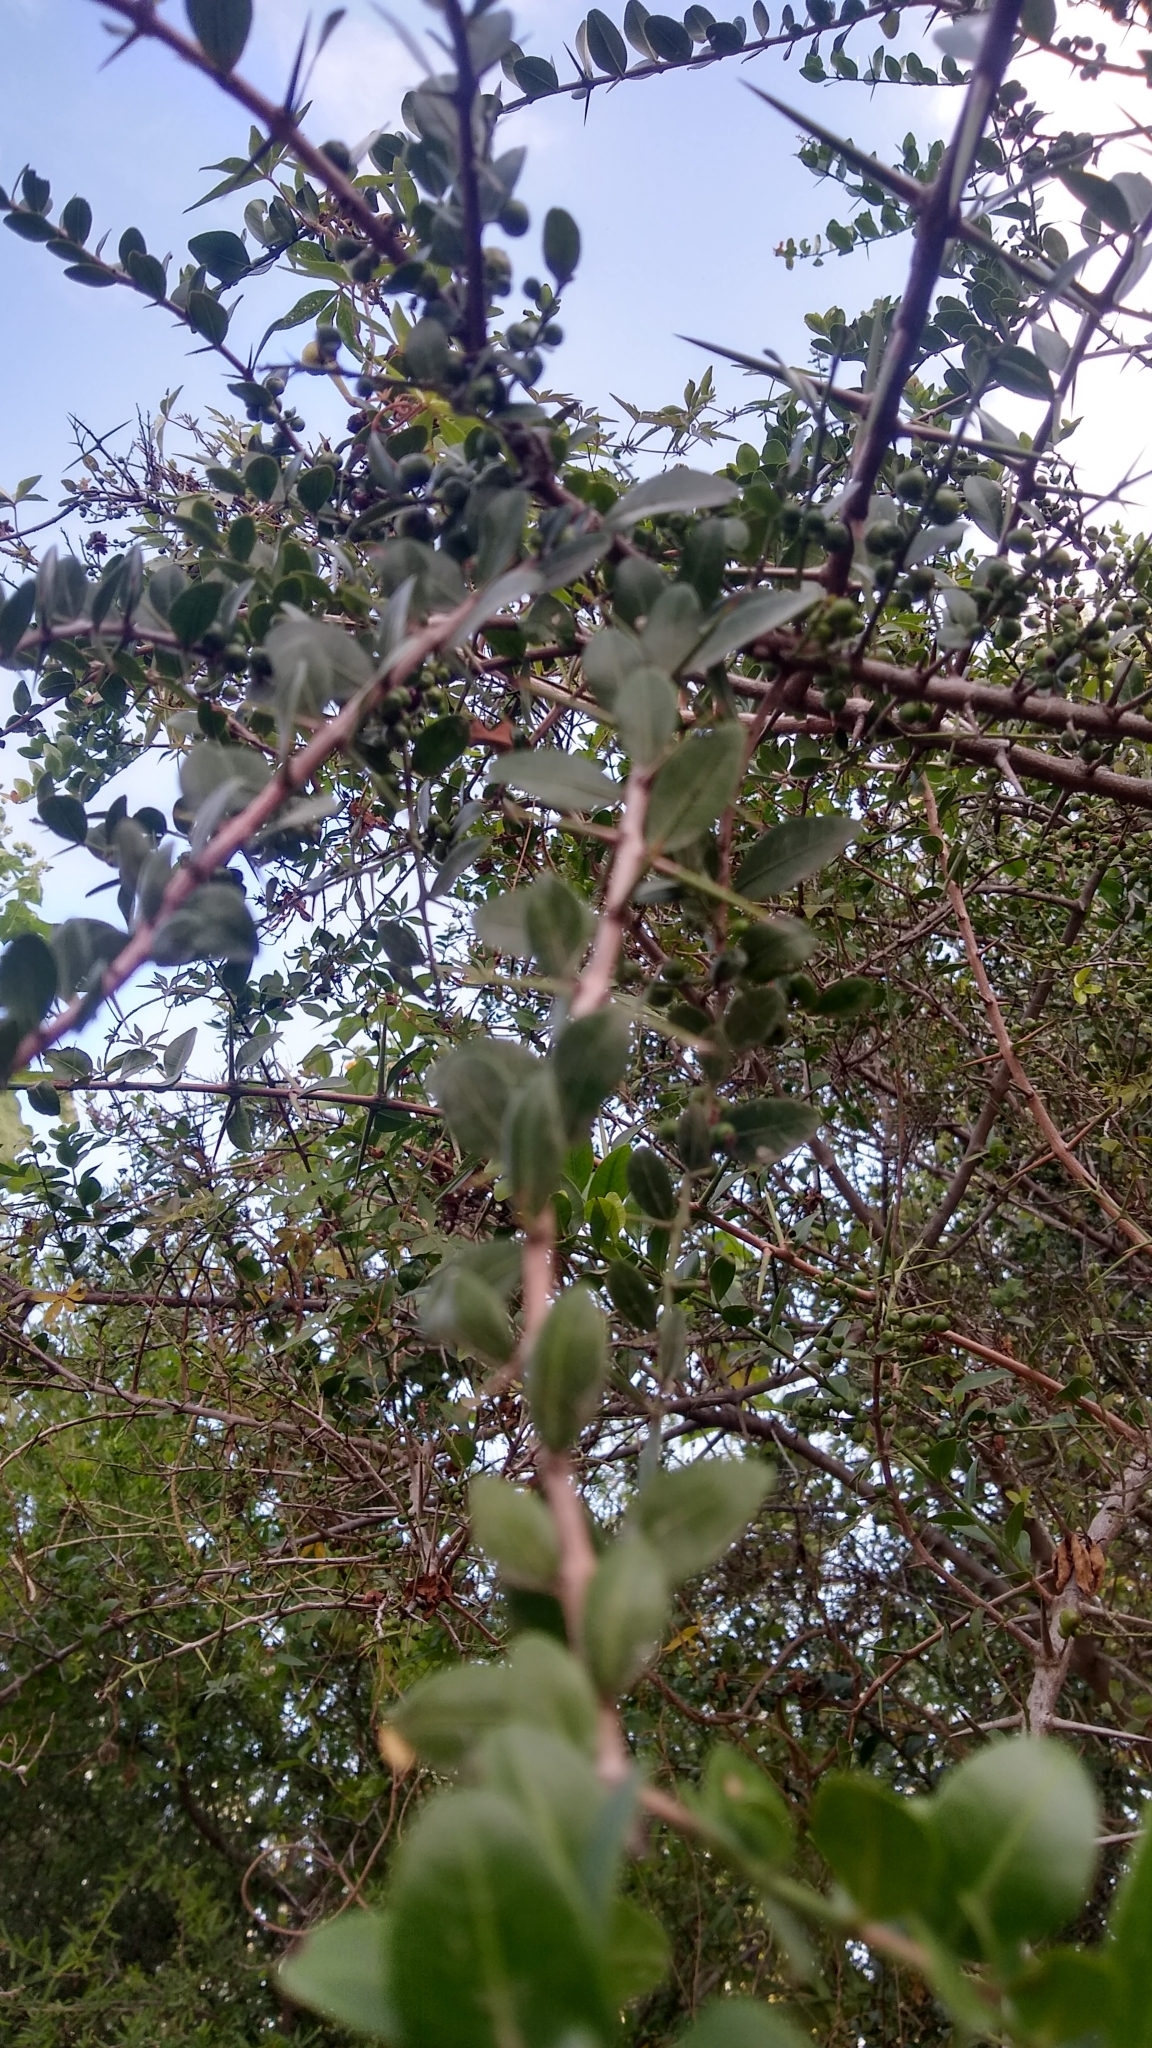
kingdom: Plantae
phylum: Tracheophyta
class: Magnoliopsida
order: Rosales
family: Rhamnaceae
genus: Scutia
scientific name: Scutia buxifolia
